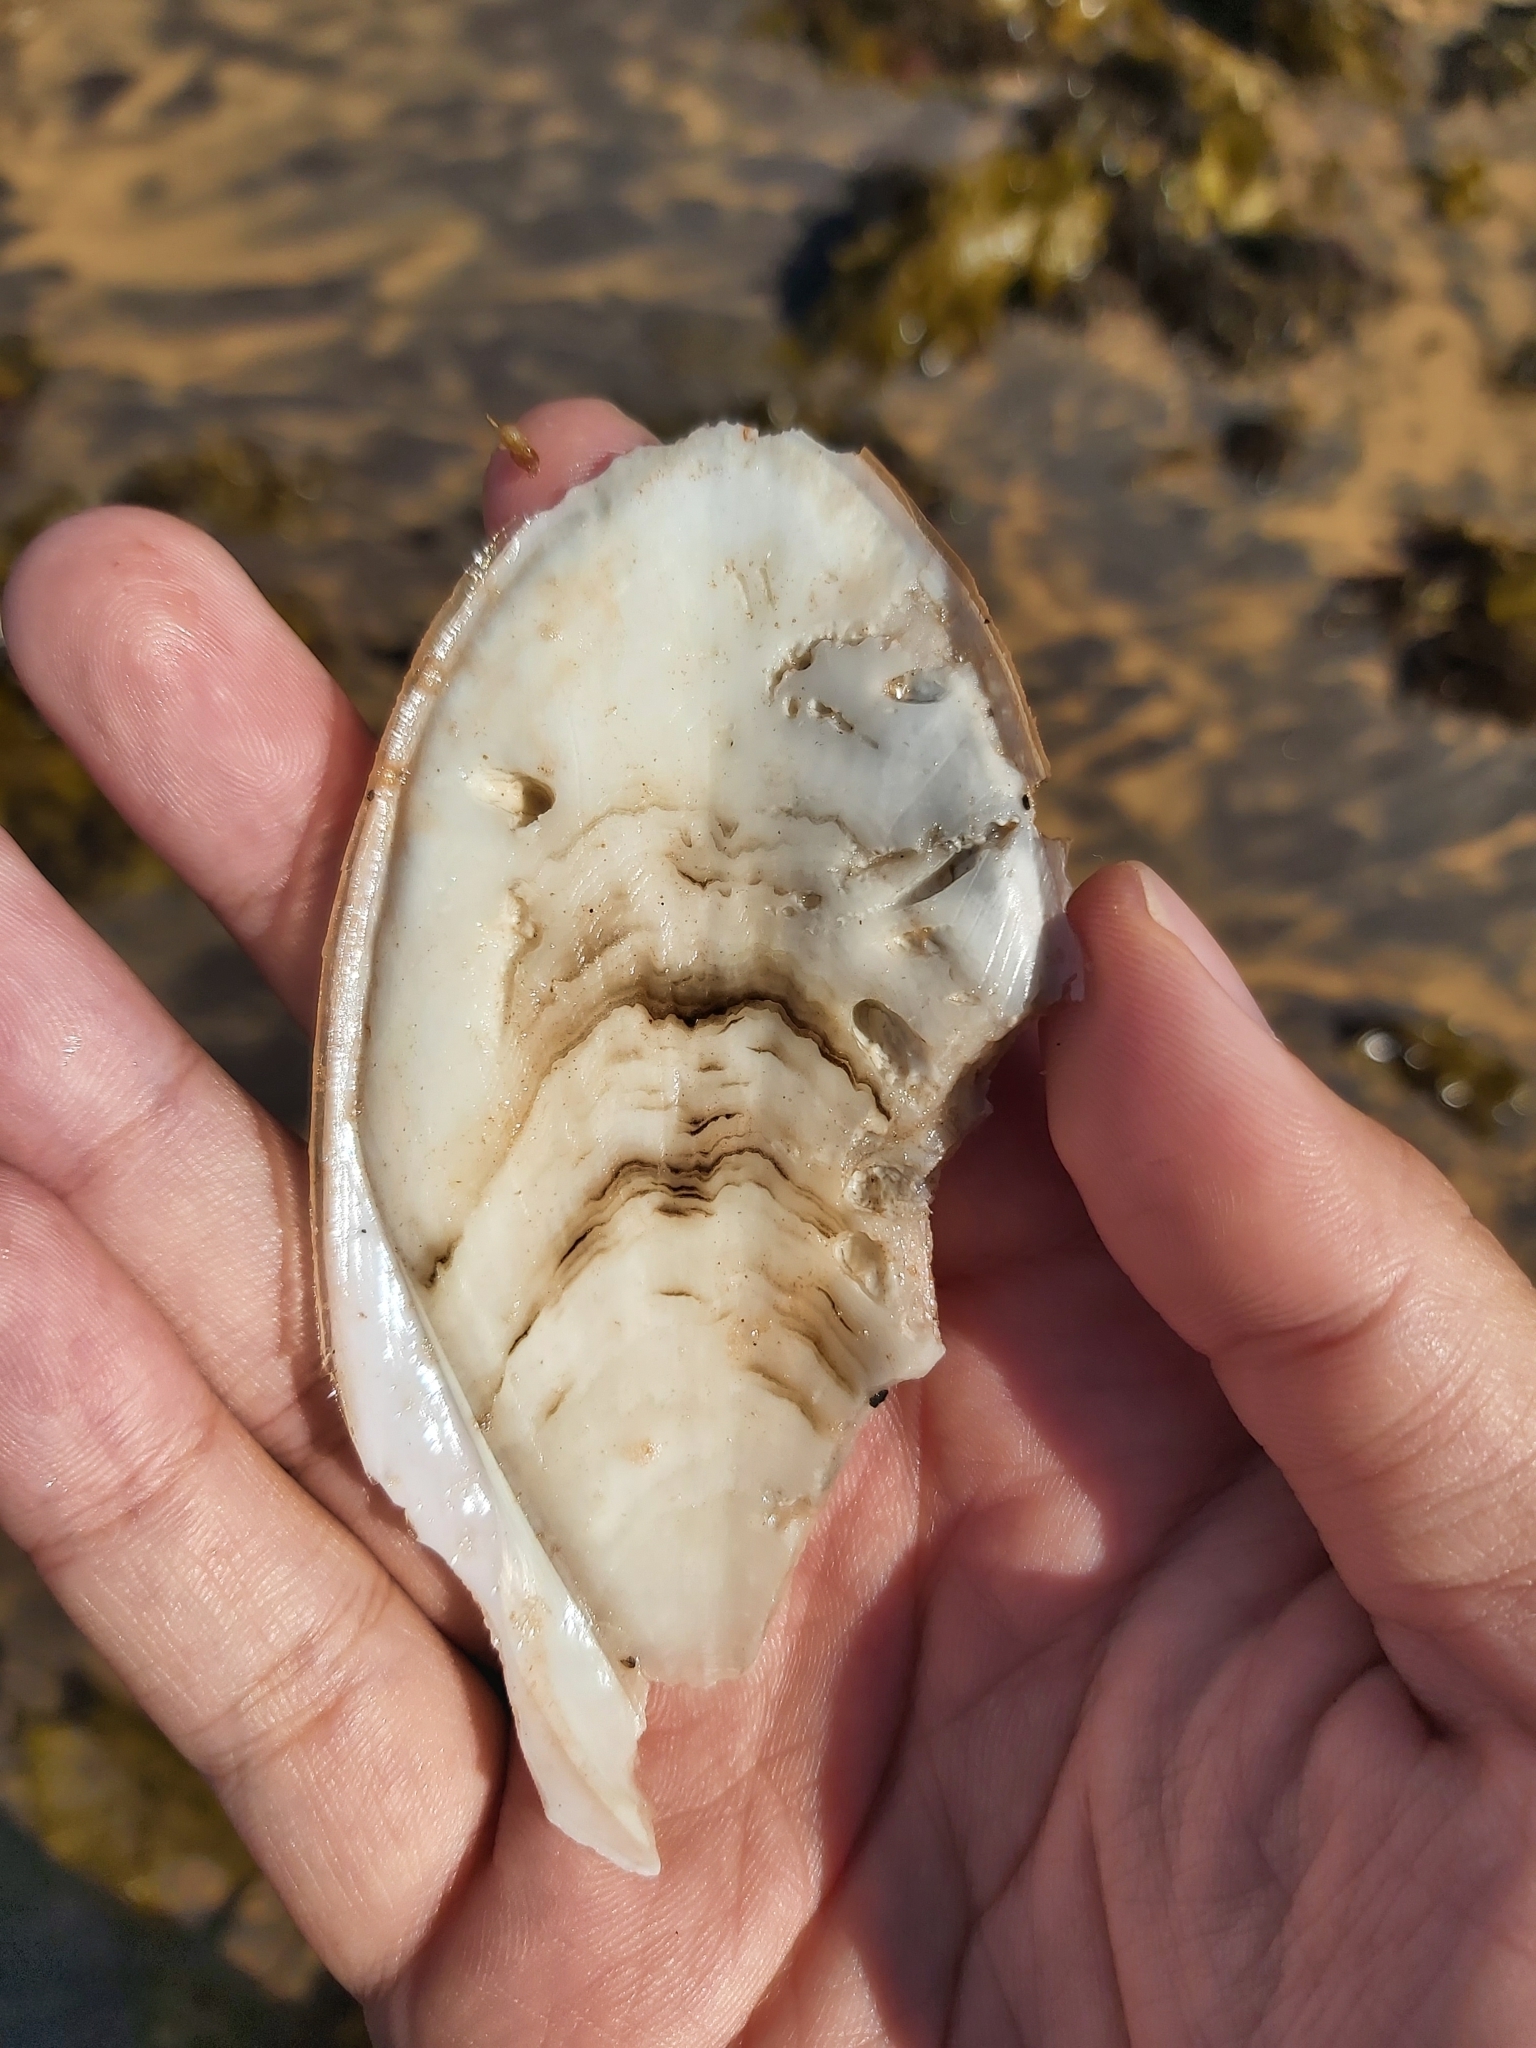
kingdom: Animalia
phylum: Mollusca
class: Cephalopoda
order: Sepiida
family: Sepiidae
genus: Ascarosepion
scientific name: Ascarosepion mestus
